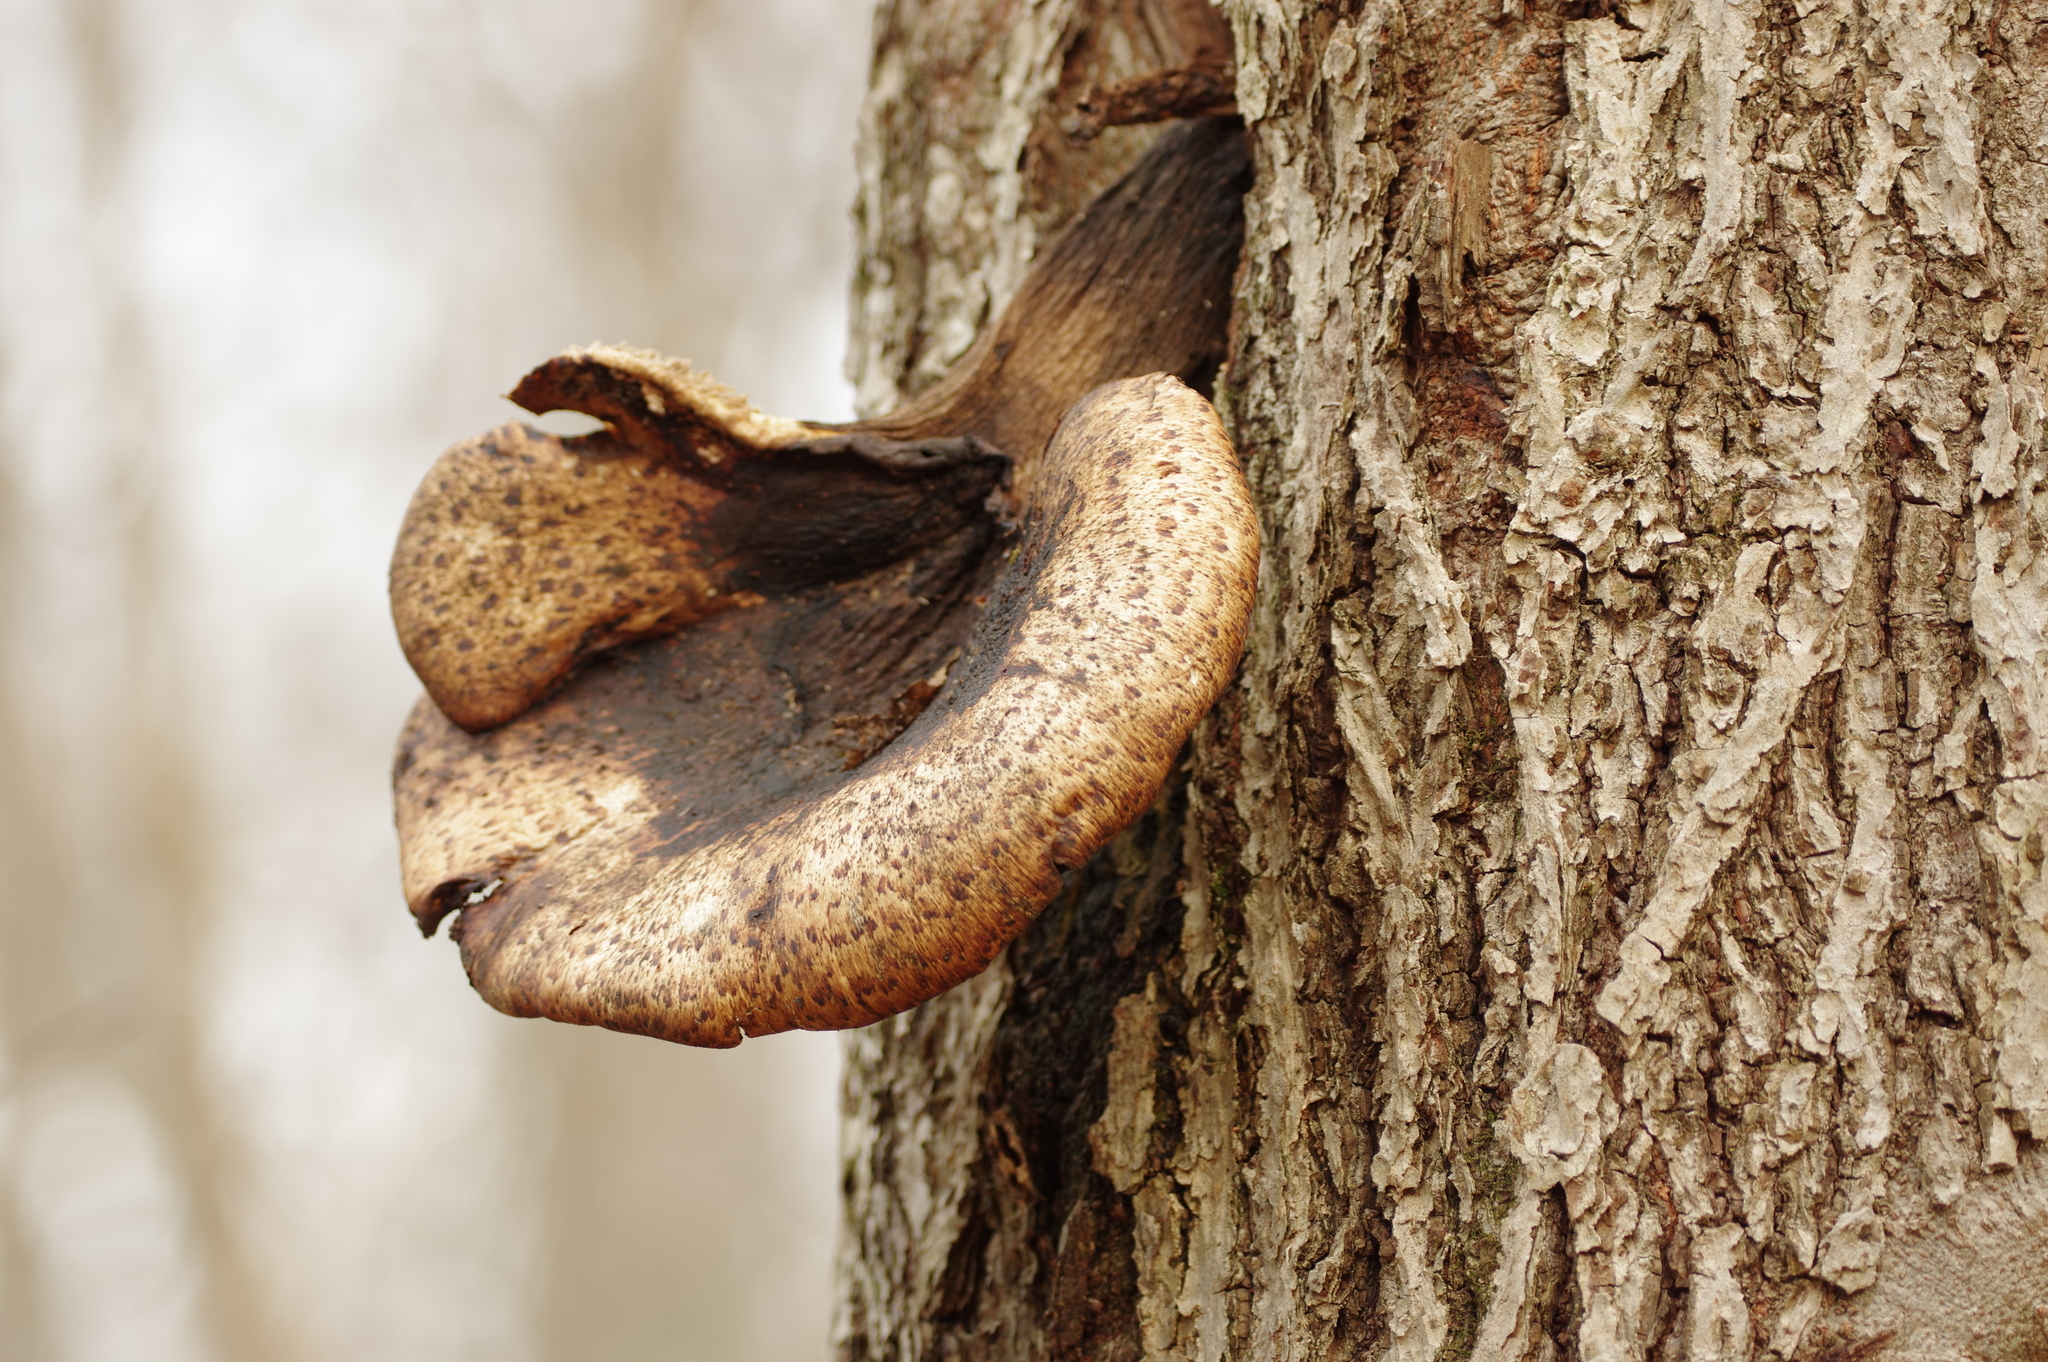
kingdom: Fungi
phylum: Basidiomycota
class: Agaricomycetes
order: Polyporales
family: Polyporaceae
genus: Cerioporus
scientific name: Cerioporus squamosus
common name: Dryad's saddle
